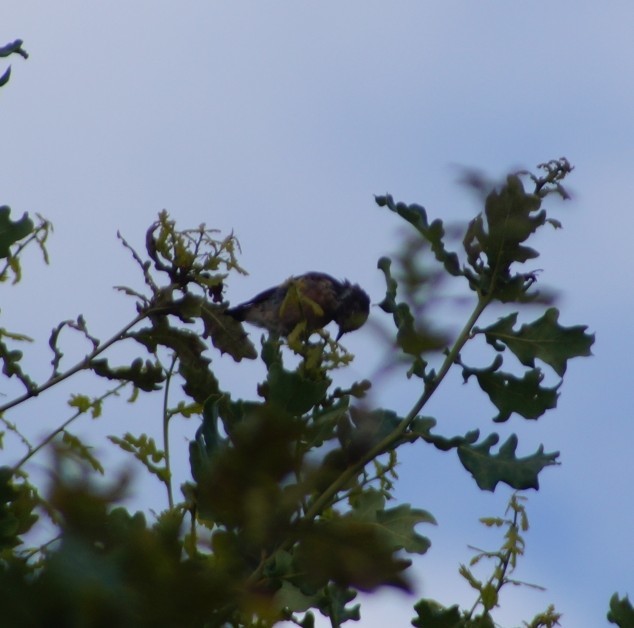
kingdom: Animalia
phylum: Chordata
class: Aves
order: Passeriformes
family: Muscicapidae
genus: Saxicola
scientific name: Saxicola rubicola
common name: European stonechat
